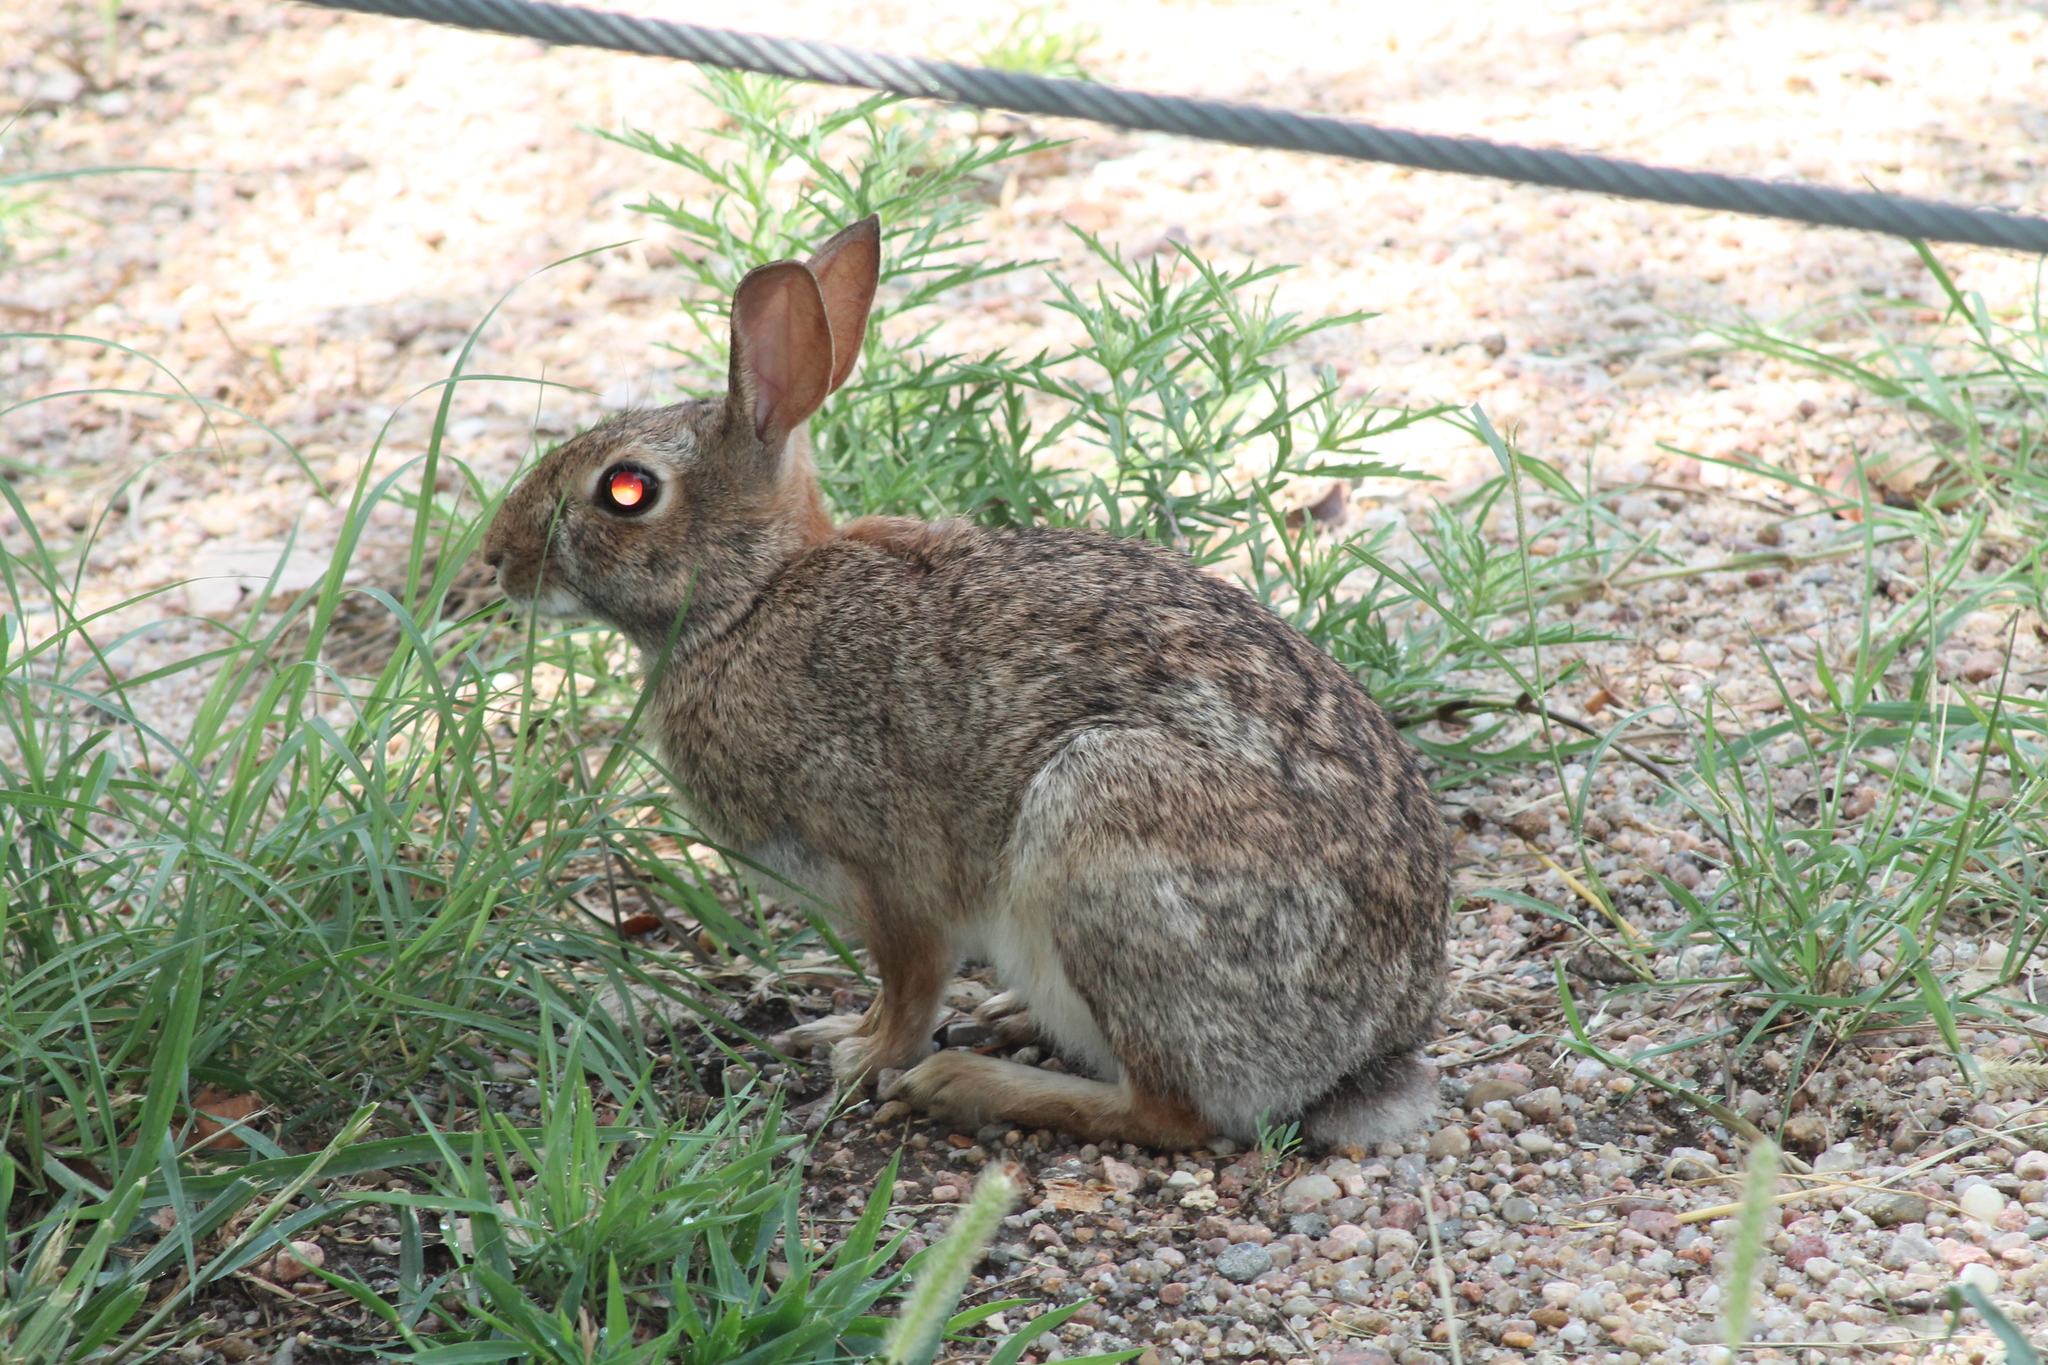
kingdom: Animalia
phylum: Chordata
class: Mammalia
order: Lagomorpha
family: Leporidae
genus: Sylvilagus
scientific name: Sylvilagus floridanus
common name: Eastern cottontail
